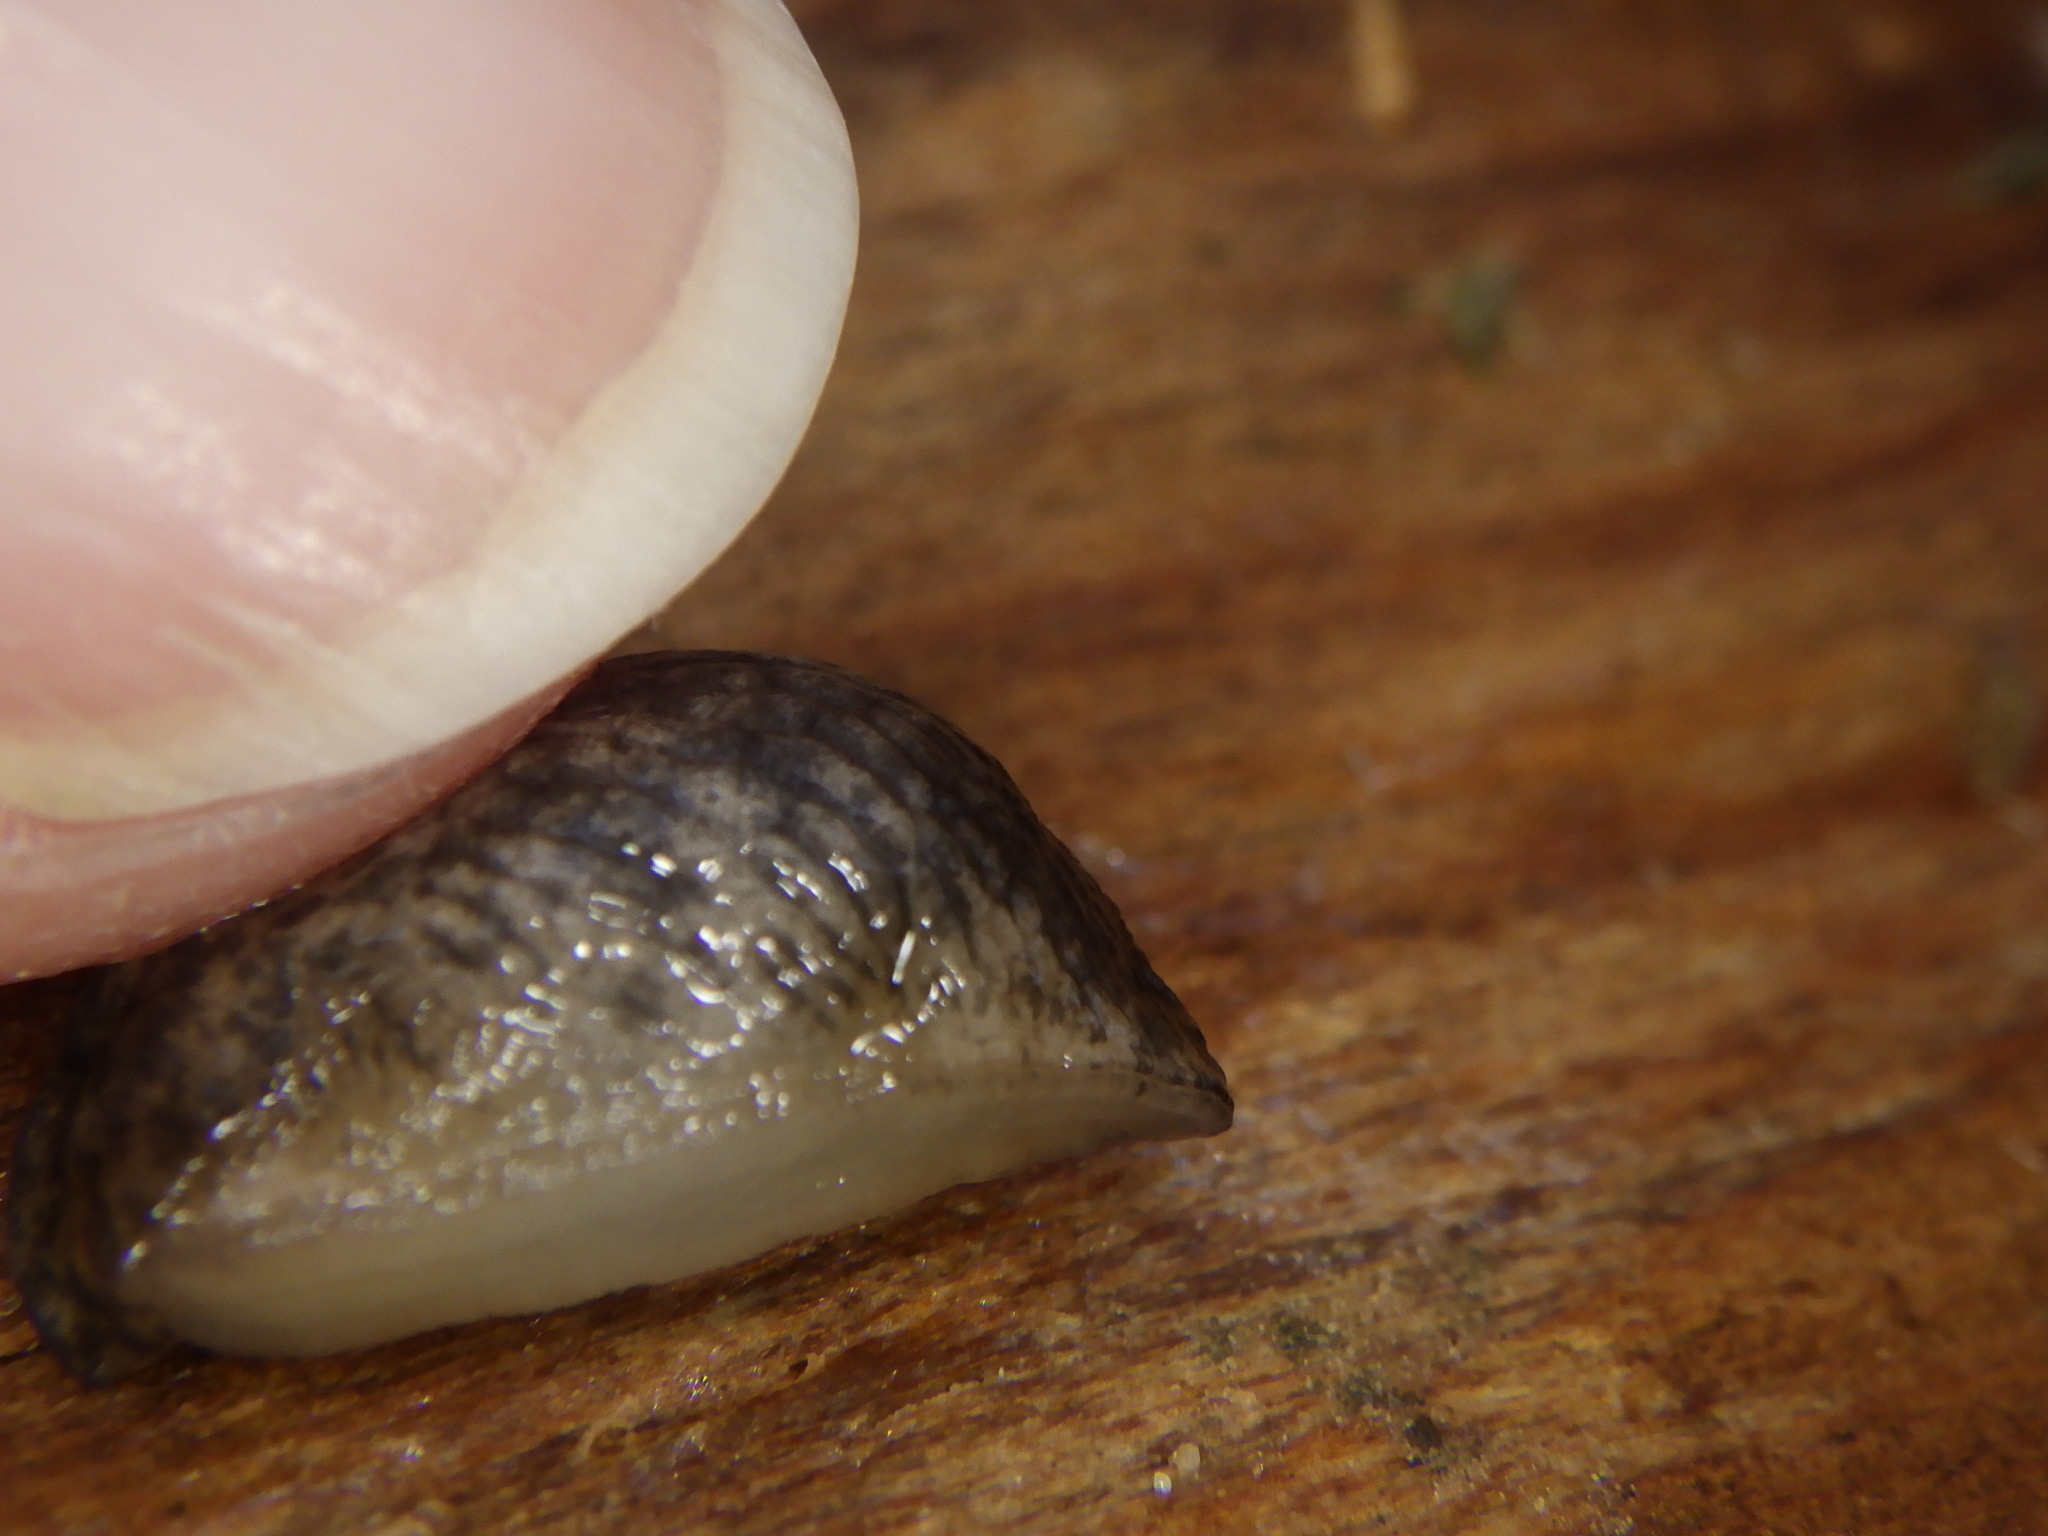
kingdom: Animalia
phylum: Mollusca
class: Gastropoda
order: Stylommatophora
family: Agriolimacidae
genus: Deroceras
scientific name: Deroceras reticulatum
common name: Gray field slug
